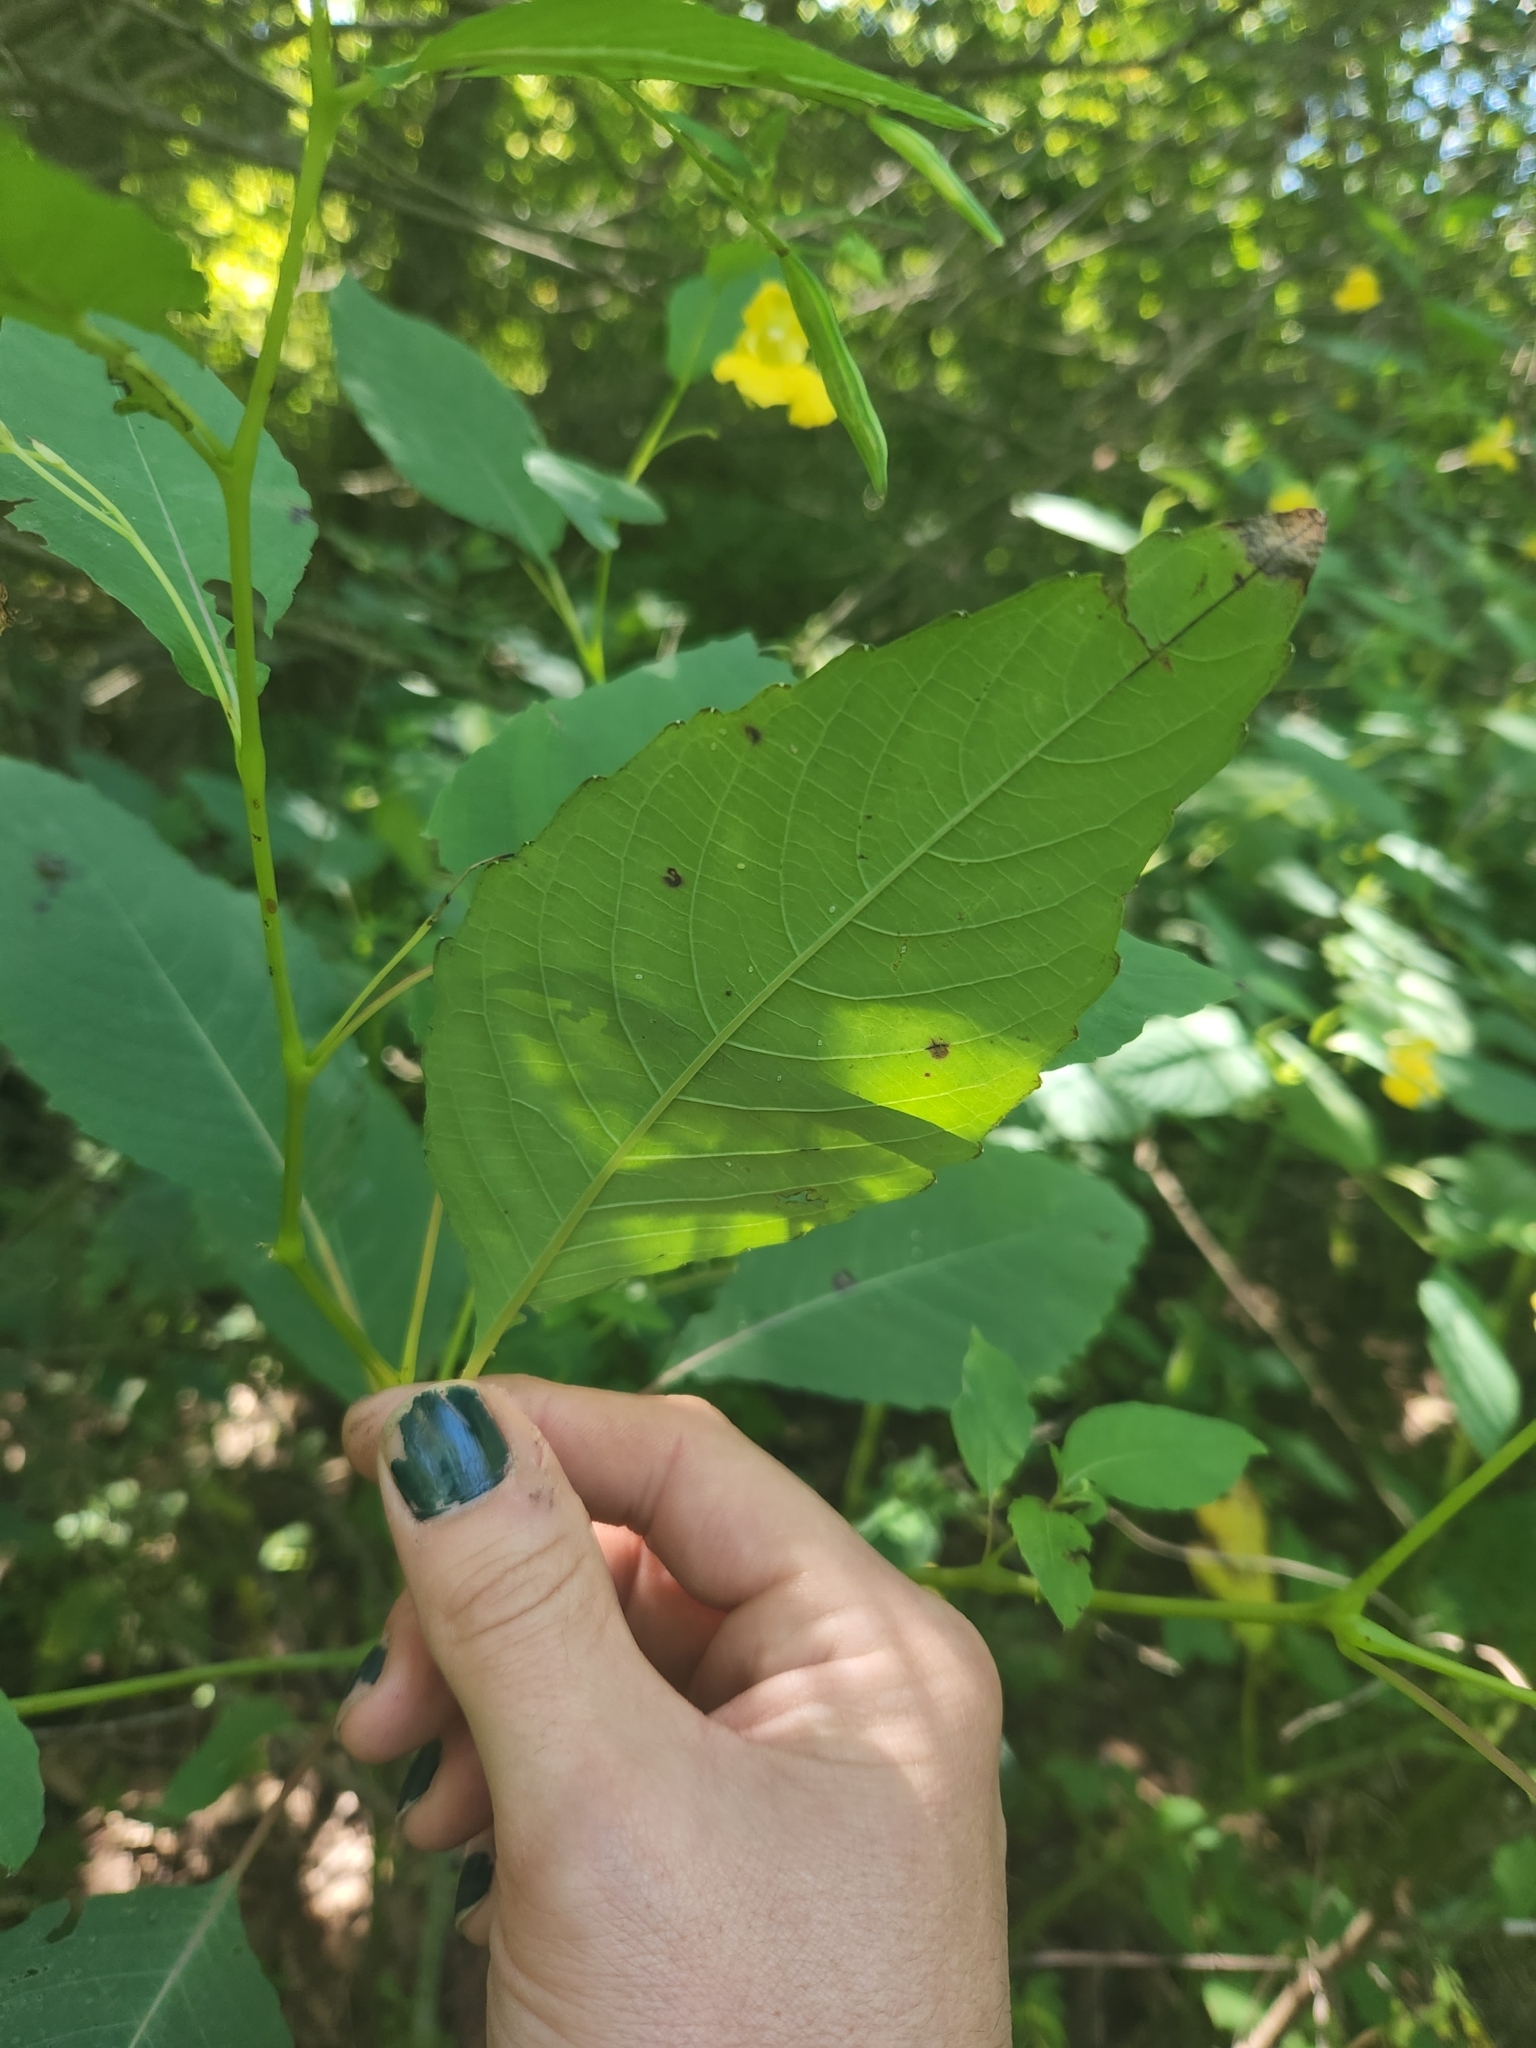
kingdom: Plantae
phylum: Tracheophyta
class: Magnoliopsida
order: Ericales
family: Balsaminaceae
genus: Impatiens
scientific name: Impatiens pallida
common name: Pale snapweed
